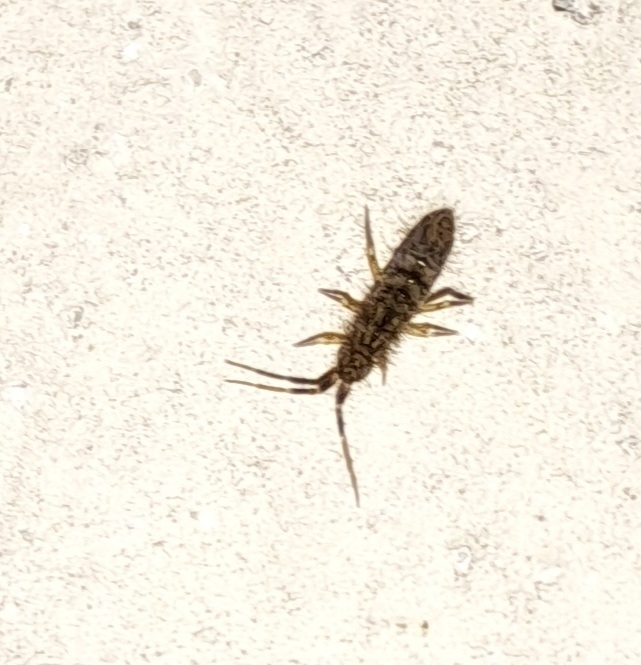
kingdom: Animalia
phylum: Arthropoda
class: Collembola
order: Entomobryomorpha
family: Orchesellidae
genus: Orchesella
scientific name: Orchesella villosa
